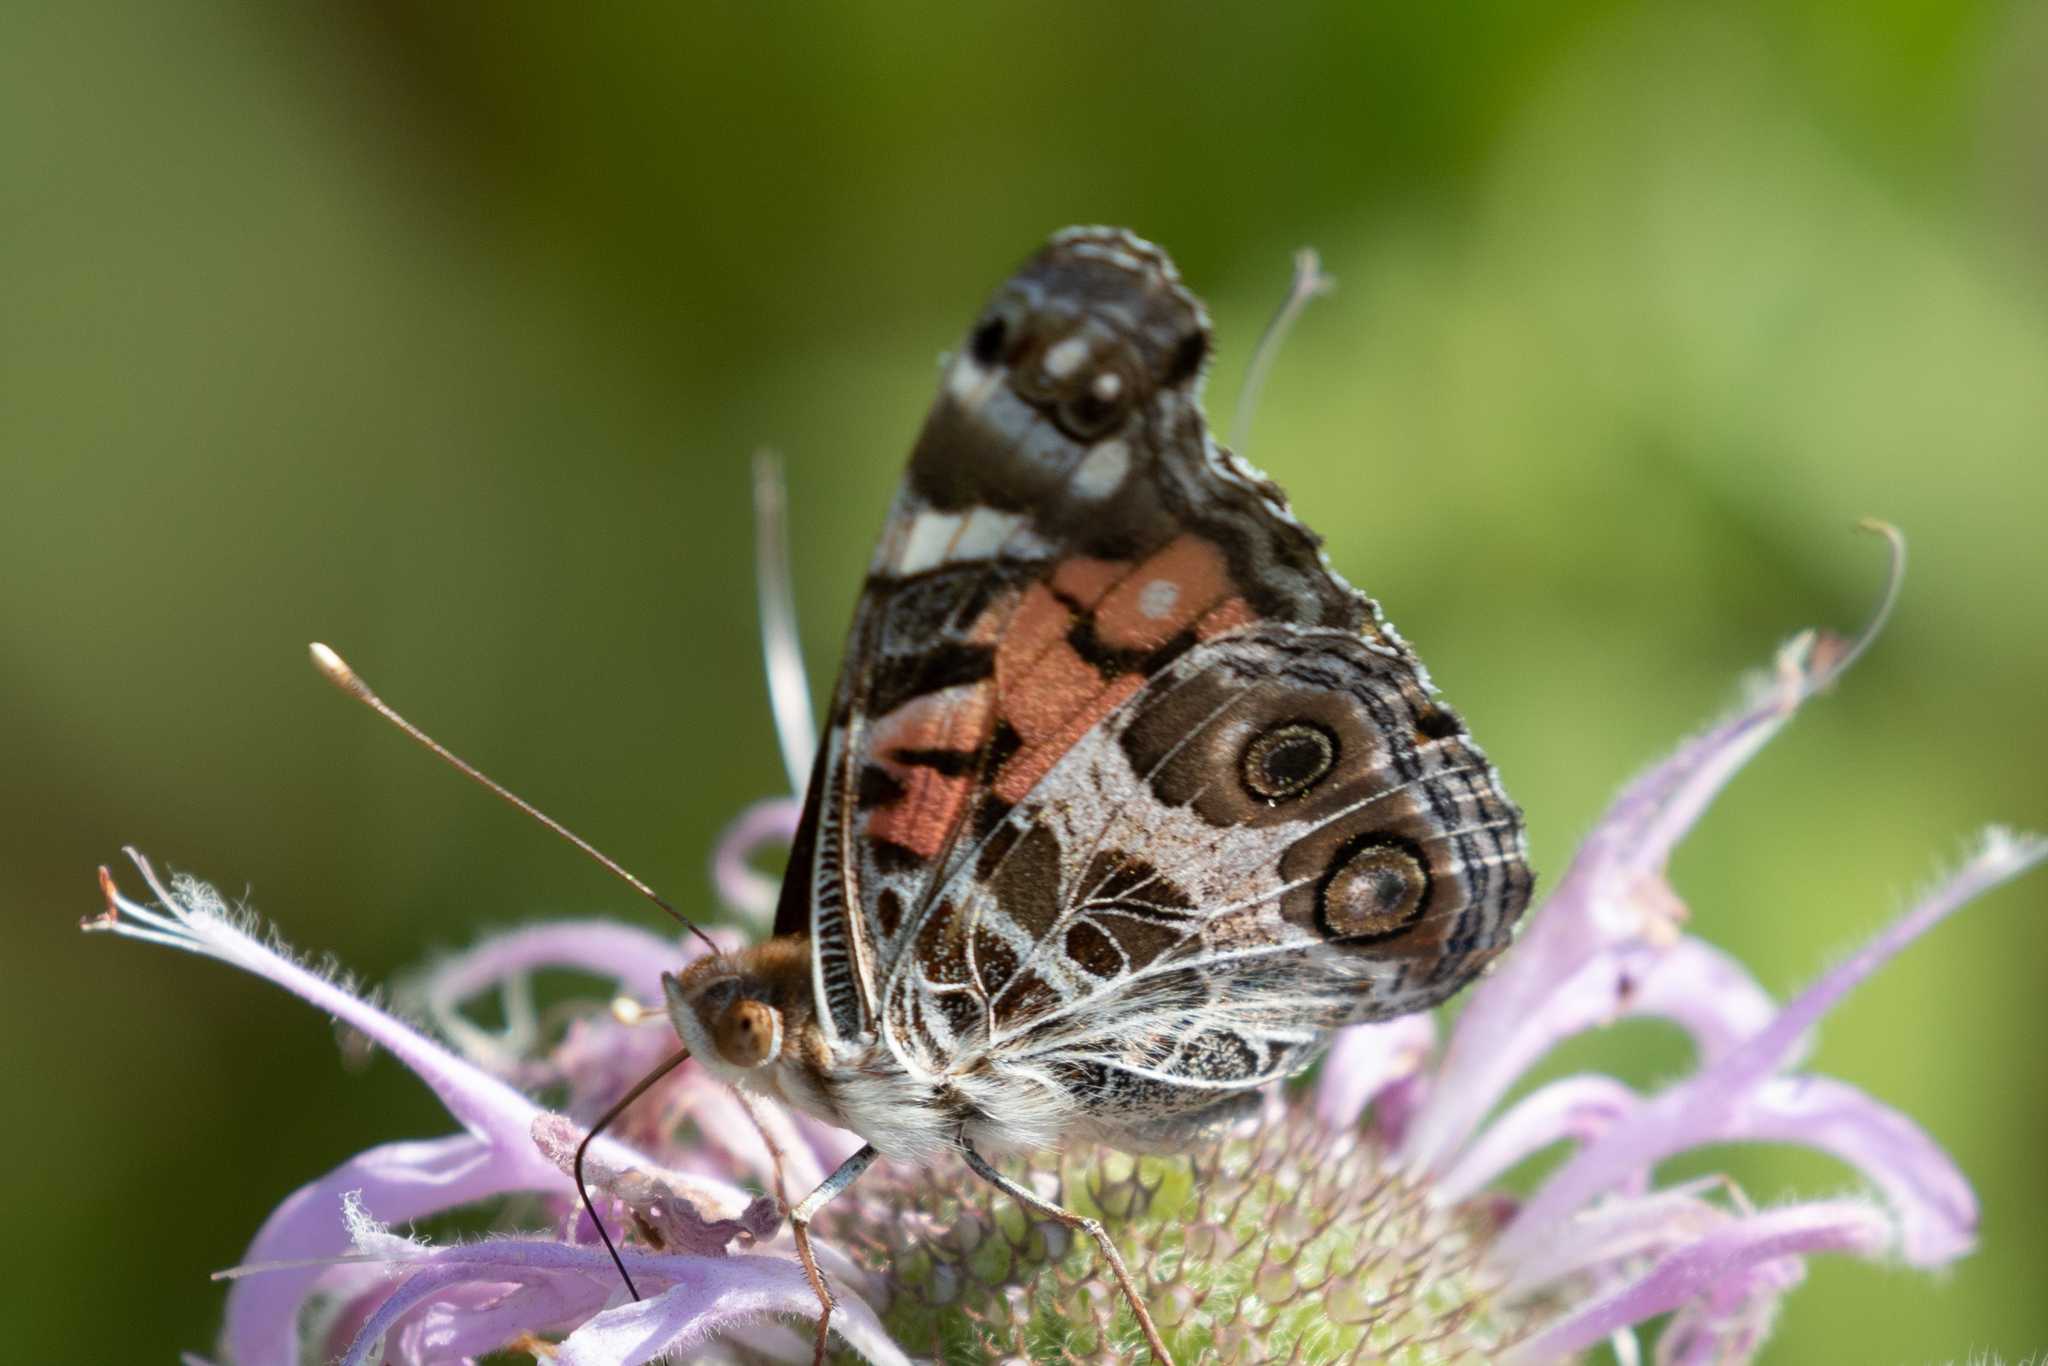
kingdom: Animalia
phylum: Arthropoda
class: Insecta
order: Lepidoptera
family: Nymphalidae
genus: Vanessa
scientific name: Vanessa virginiensis
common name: American lady
